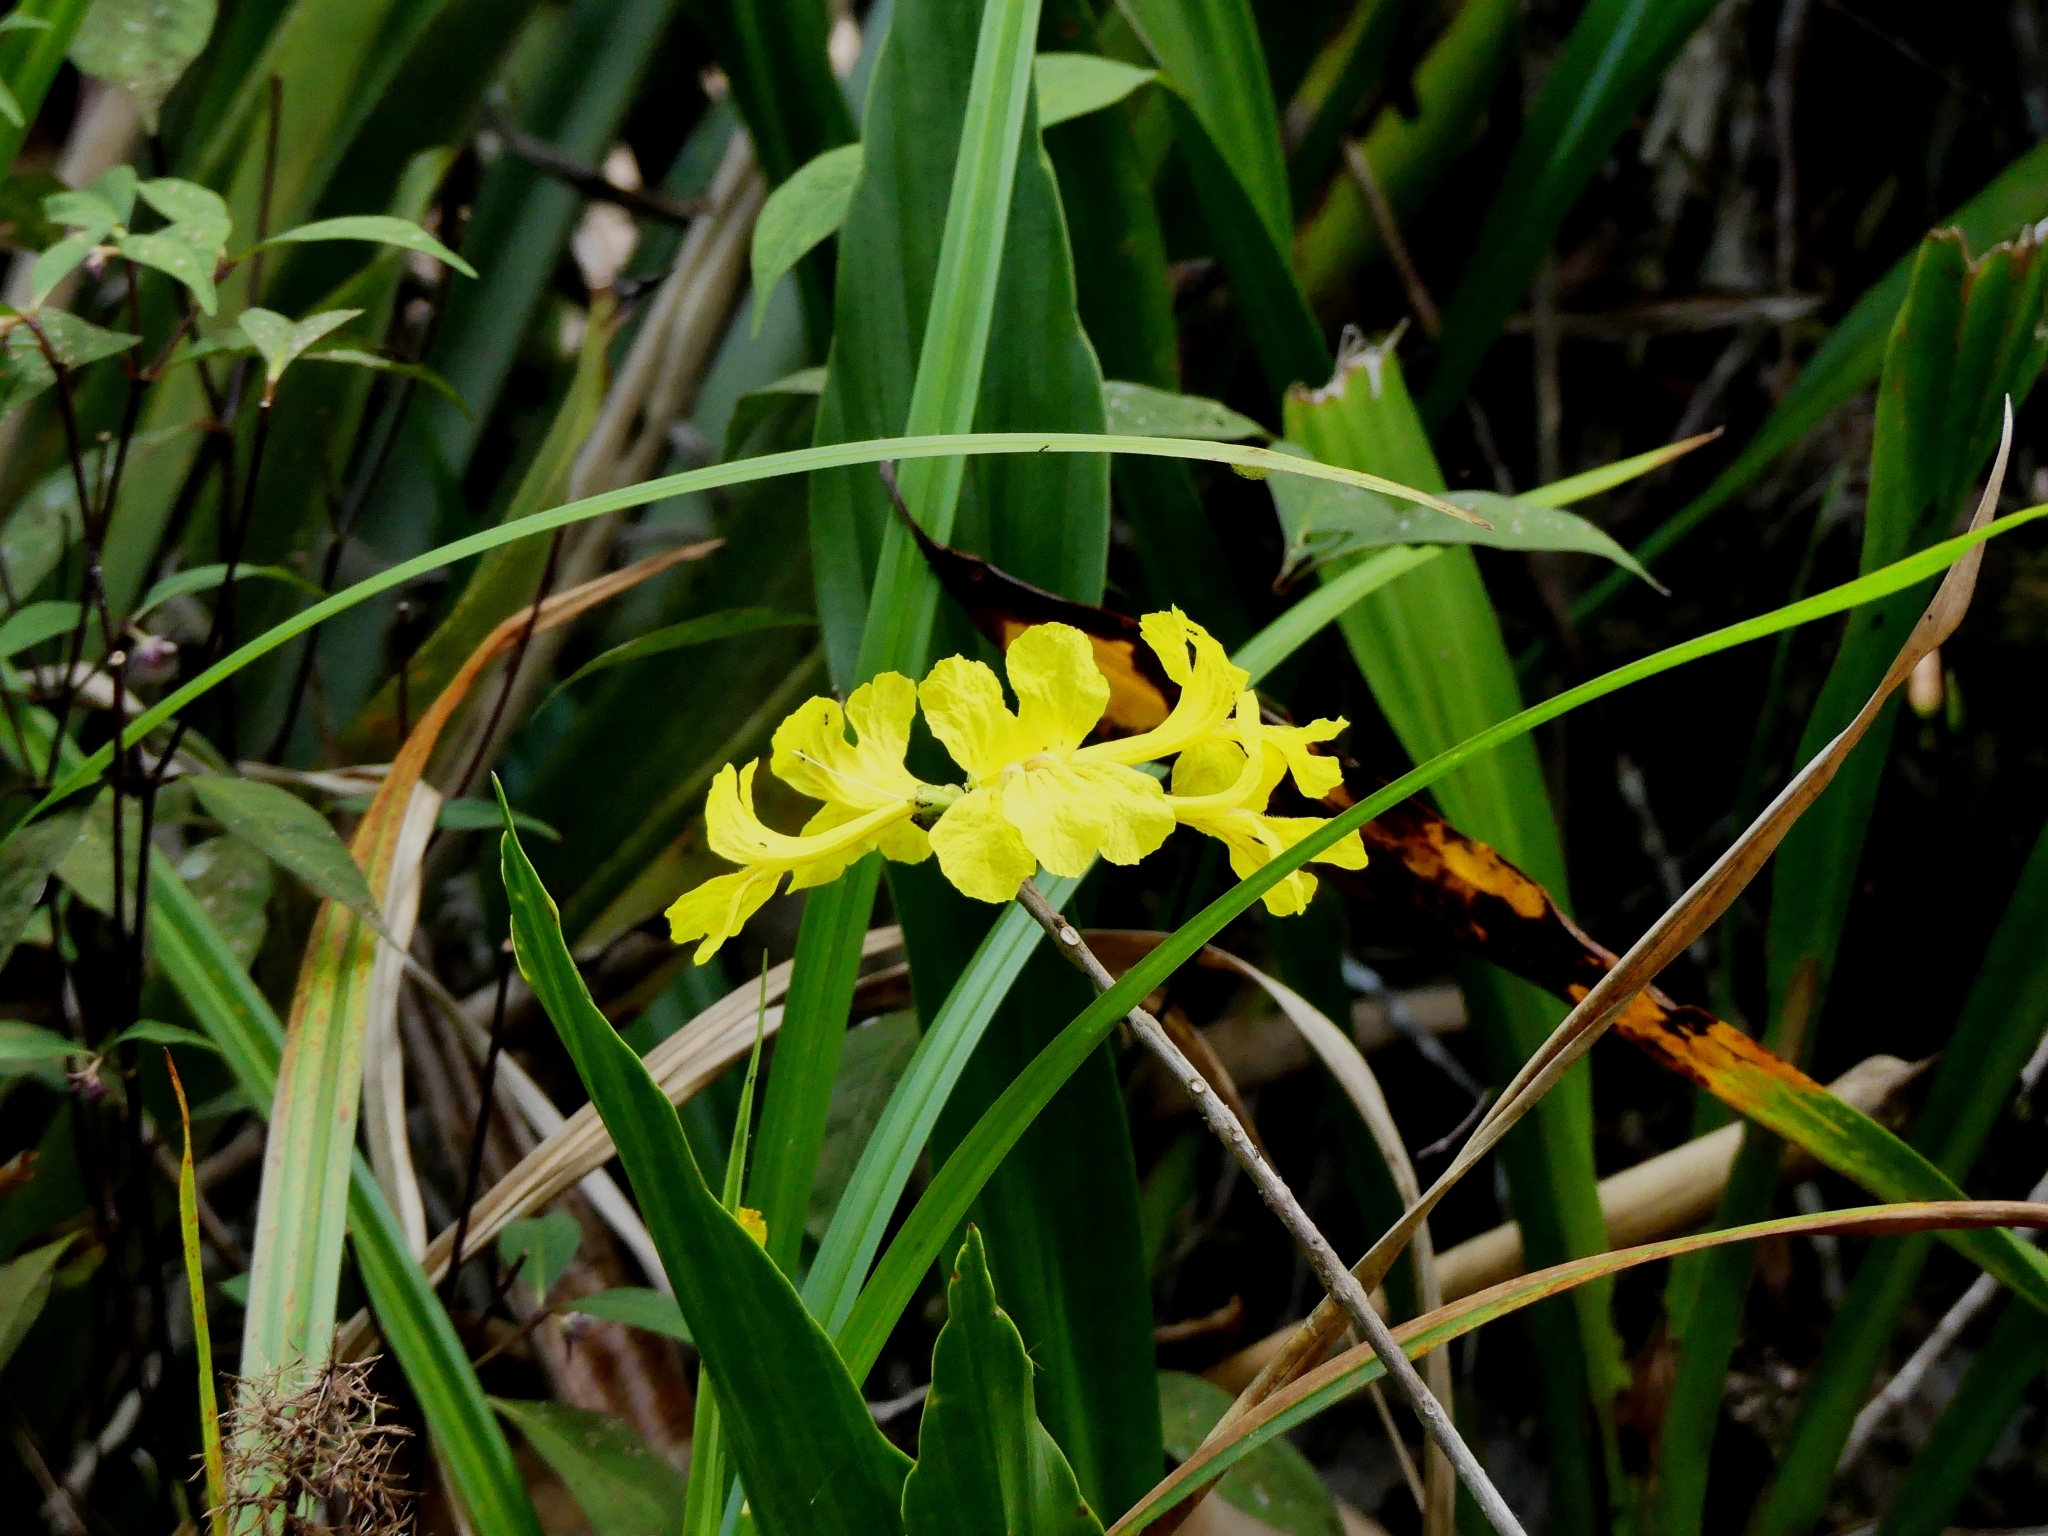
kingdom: Plantae
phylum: Tracheophyta
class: Magnoliopsida
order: Lamiales
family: Bignoniaceae
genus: Handroanthus
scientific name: Handroanthus capitatus
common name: Trumpet trees
